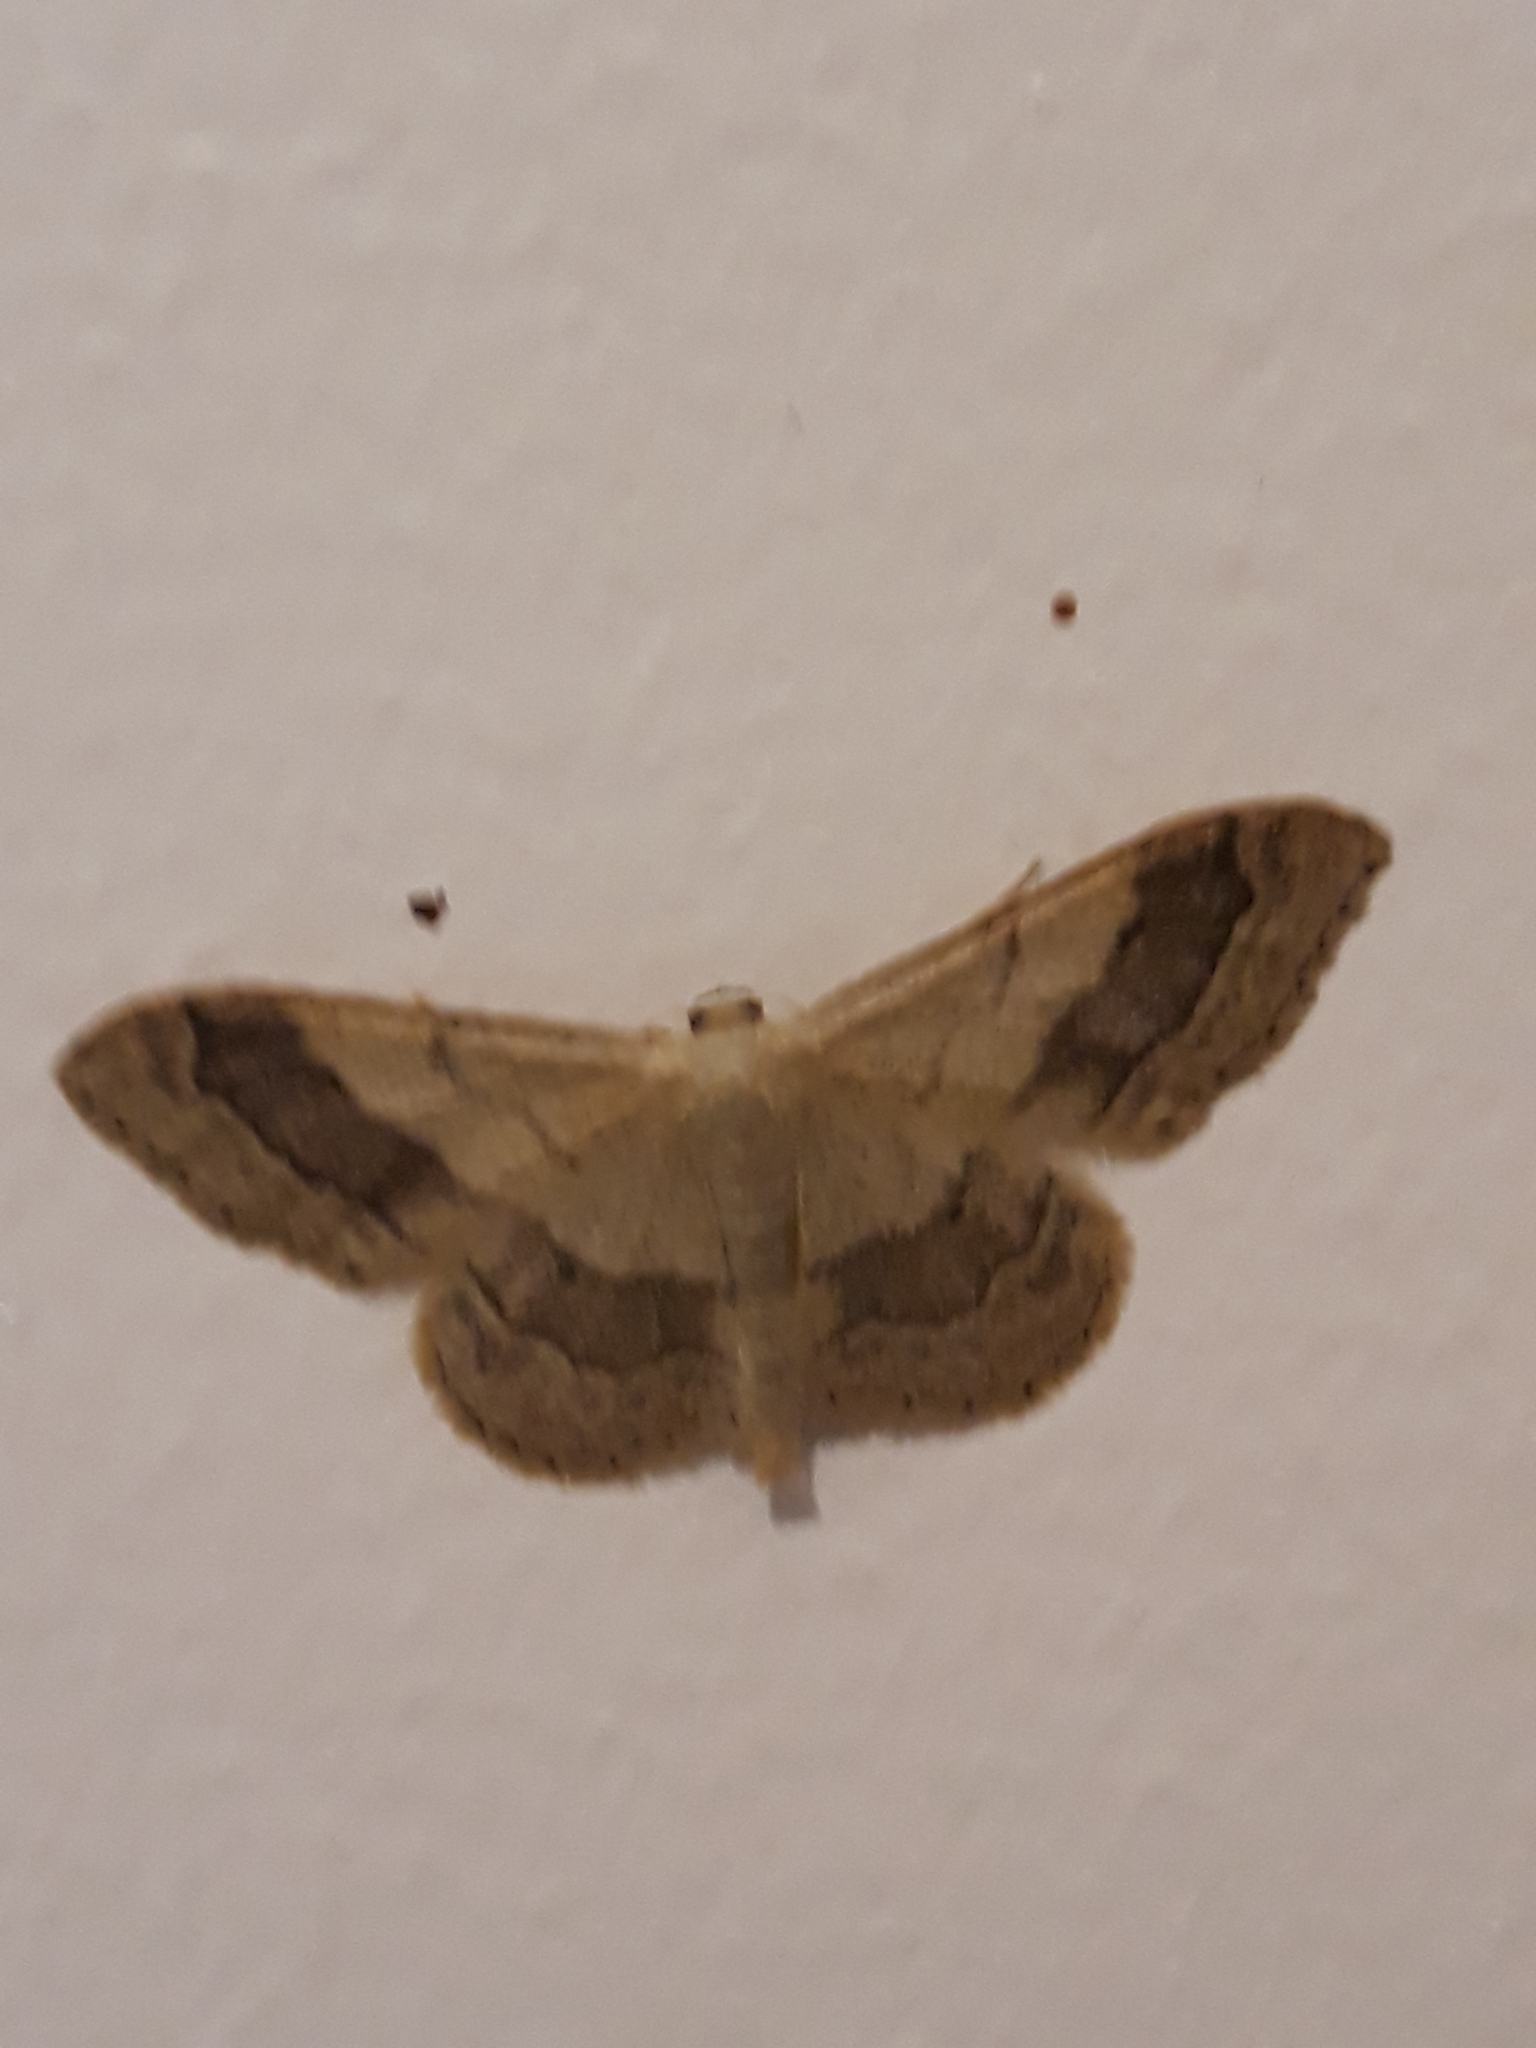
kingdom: Animalia
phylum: Arthropoda
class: Insecta
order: Lepidoptera
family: Geometridae
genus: Idaea
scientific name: Idaea aversata
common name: Riband wave
